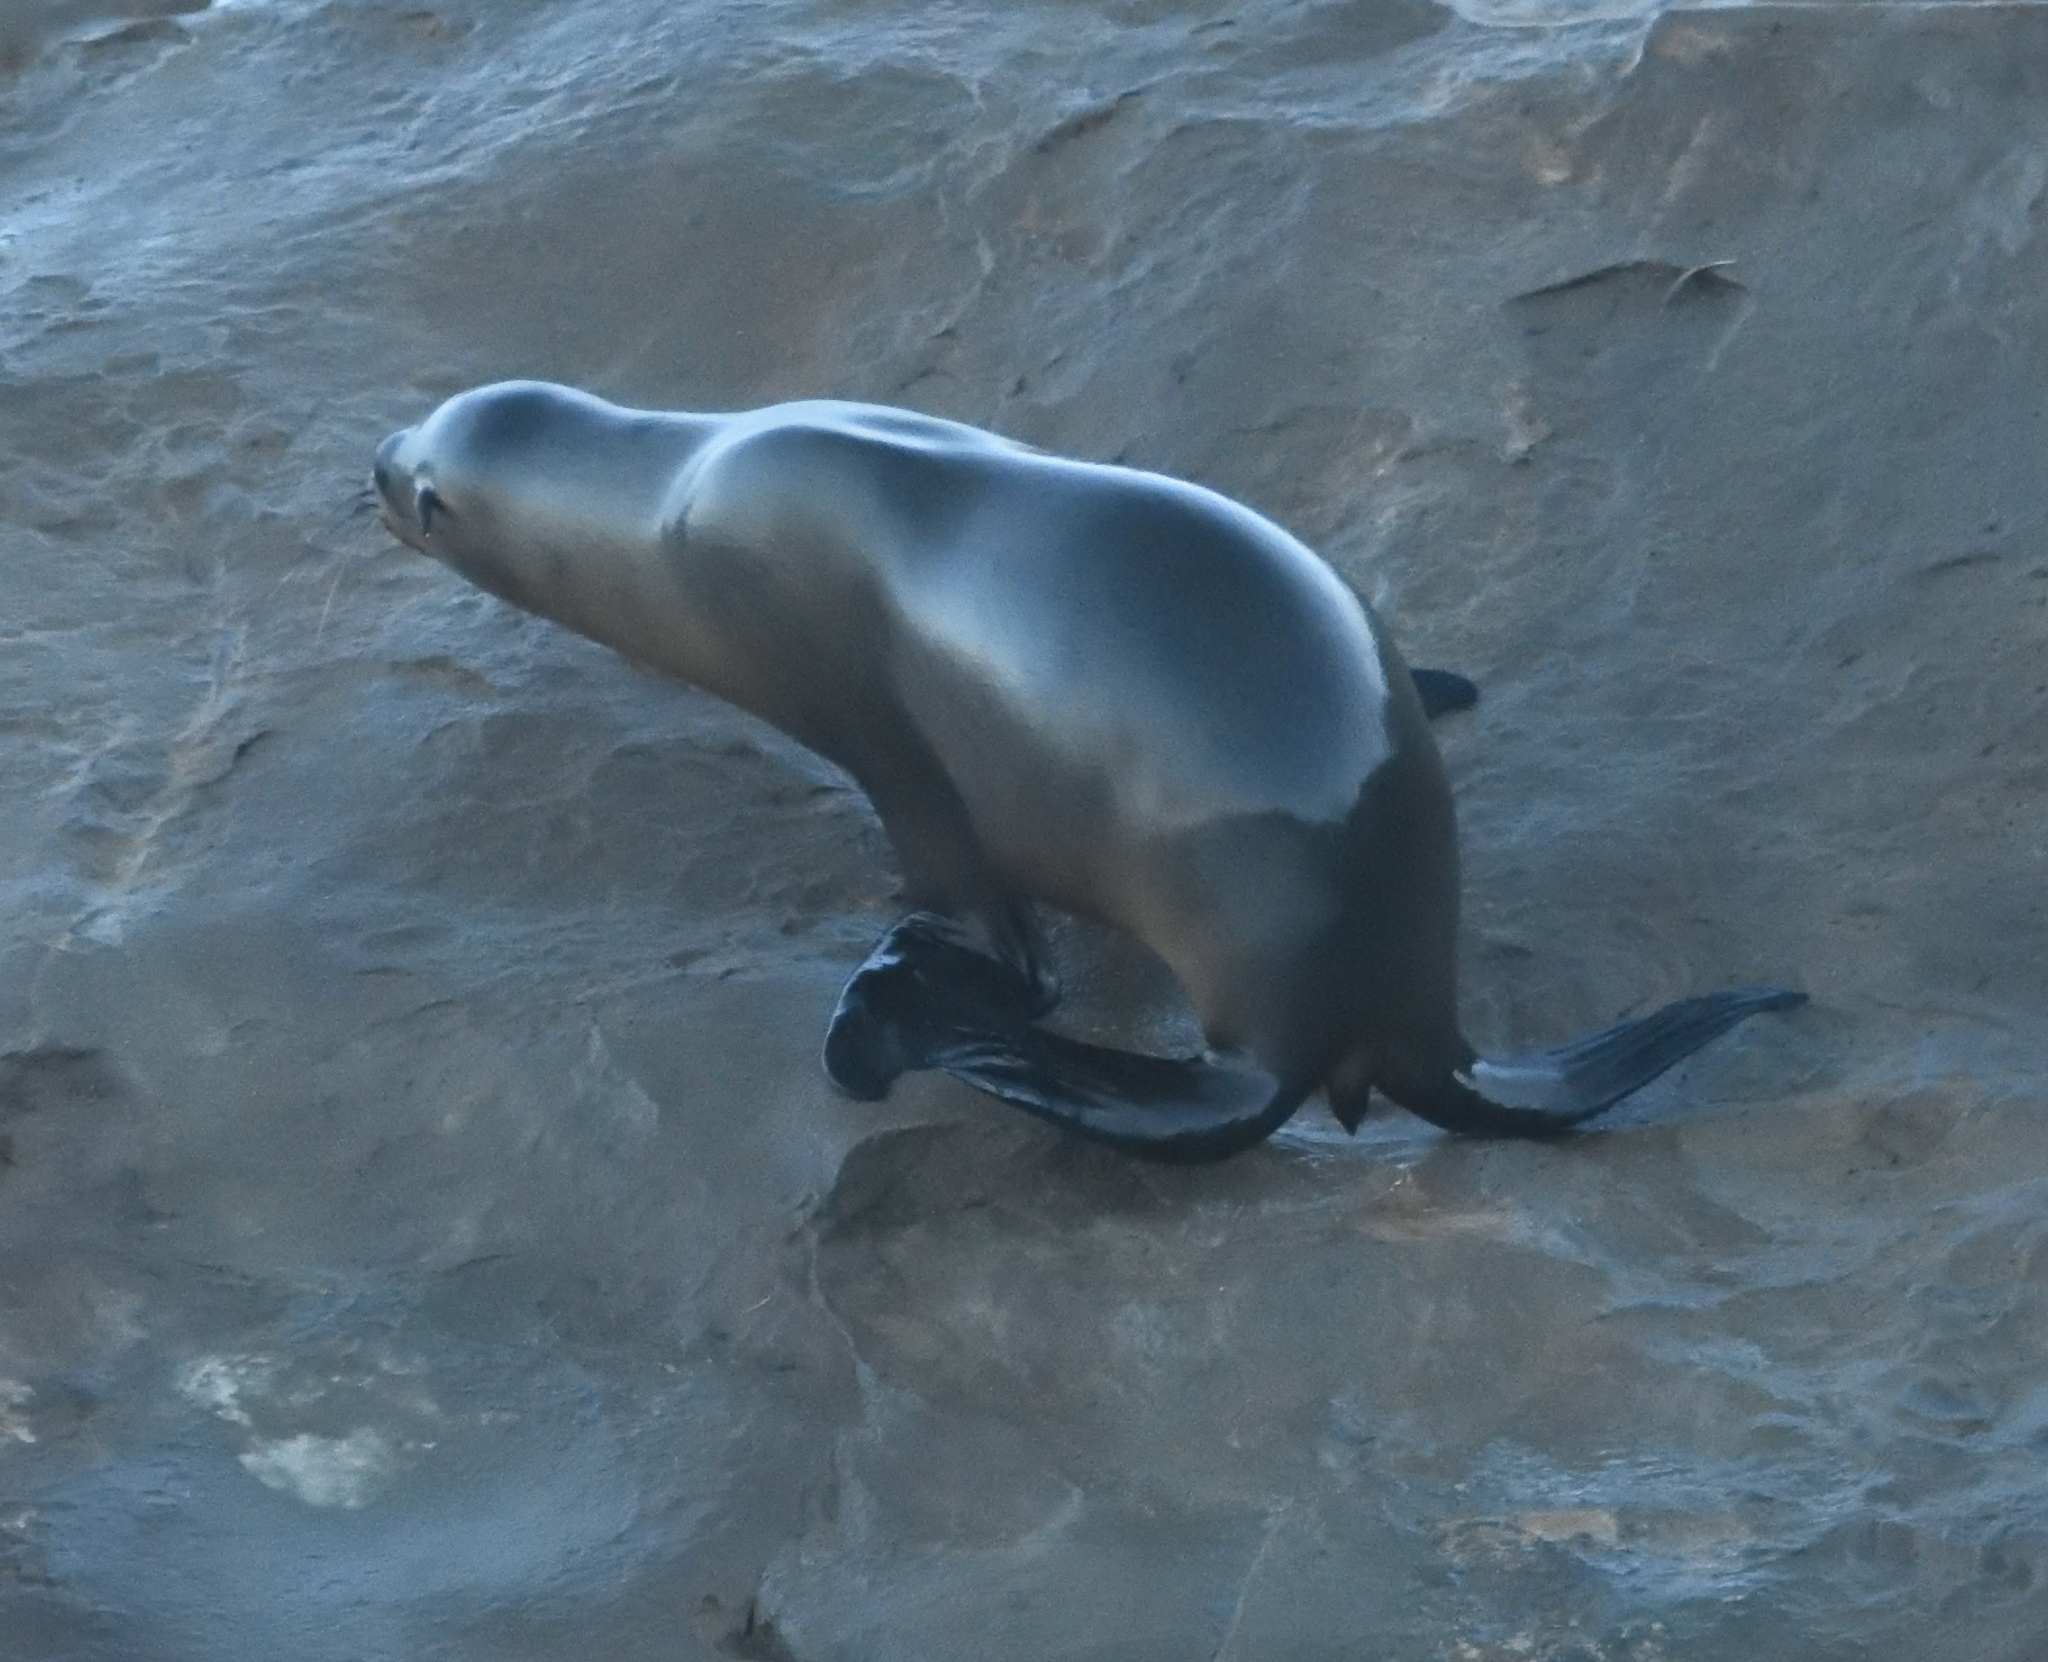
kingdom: Animalia
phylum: Chordata
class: Mammalia
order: Carnivora
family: Otariidae
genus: Zalophus
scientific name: Zalophus californianus
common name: California sea lion
